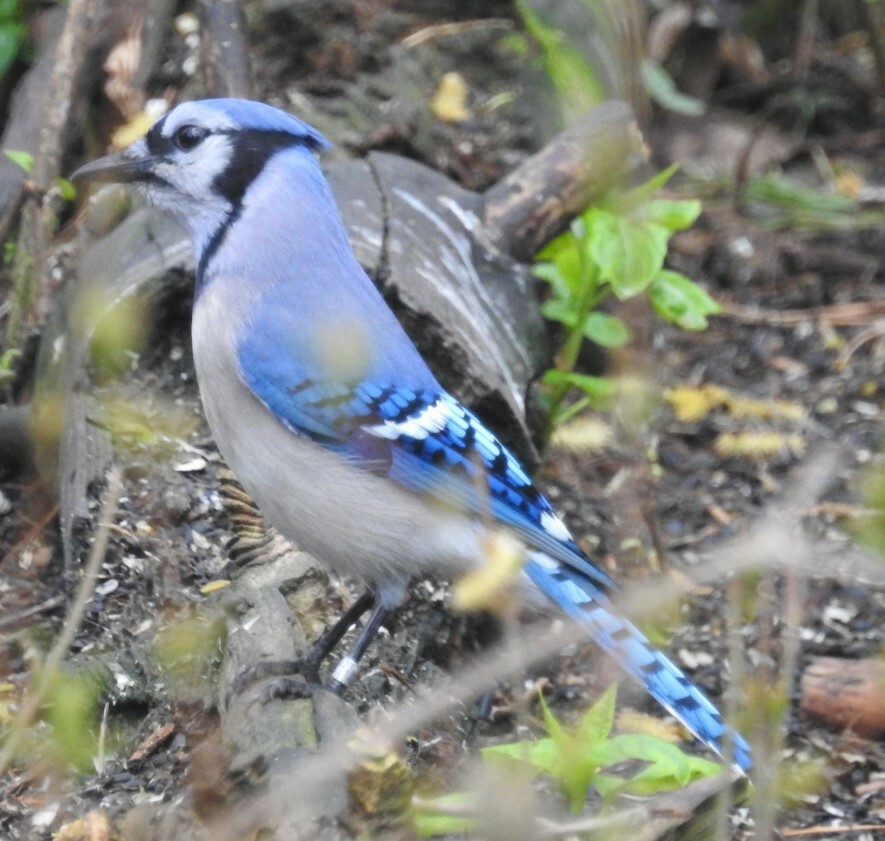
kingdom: Animalia
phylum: Chordata
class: Aves
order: Passeriformes
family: Corvidae
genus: Cyanocitta
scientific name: Cyanocitta cristata
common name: Blue jay
